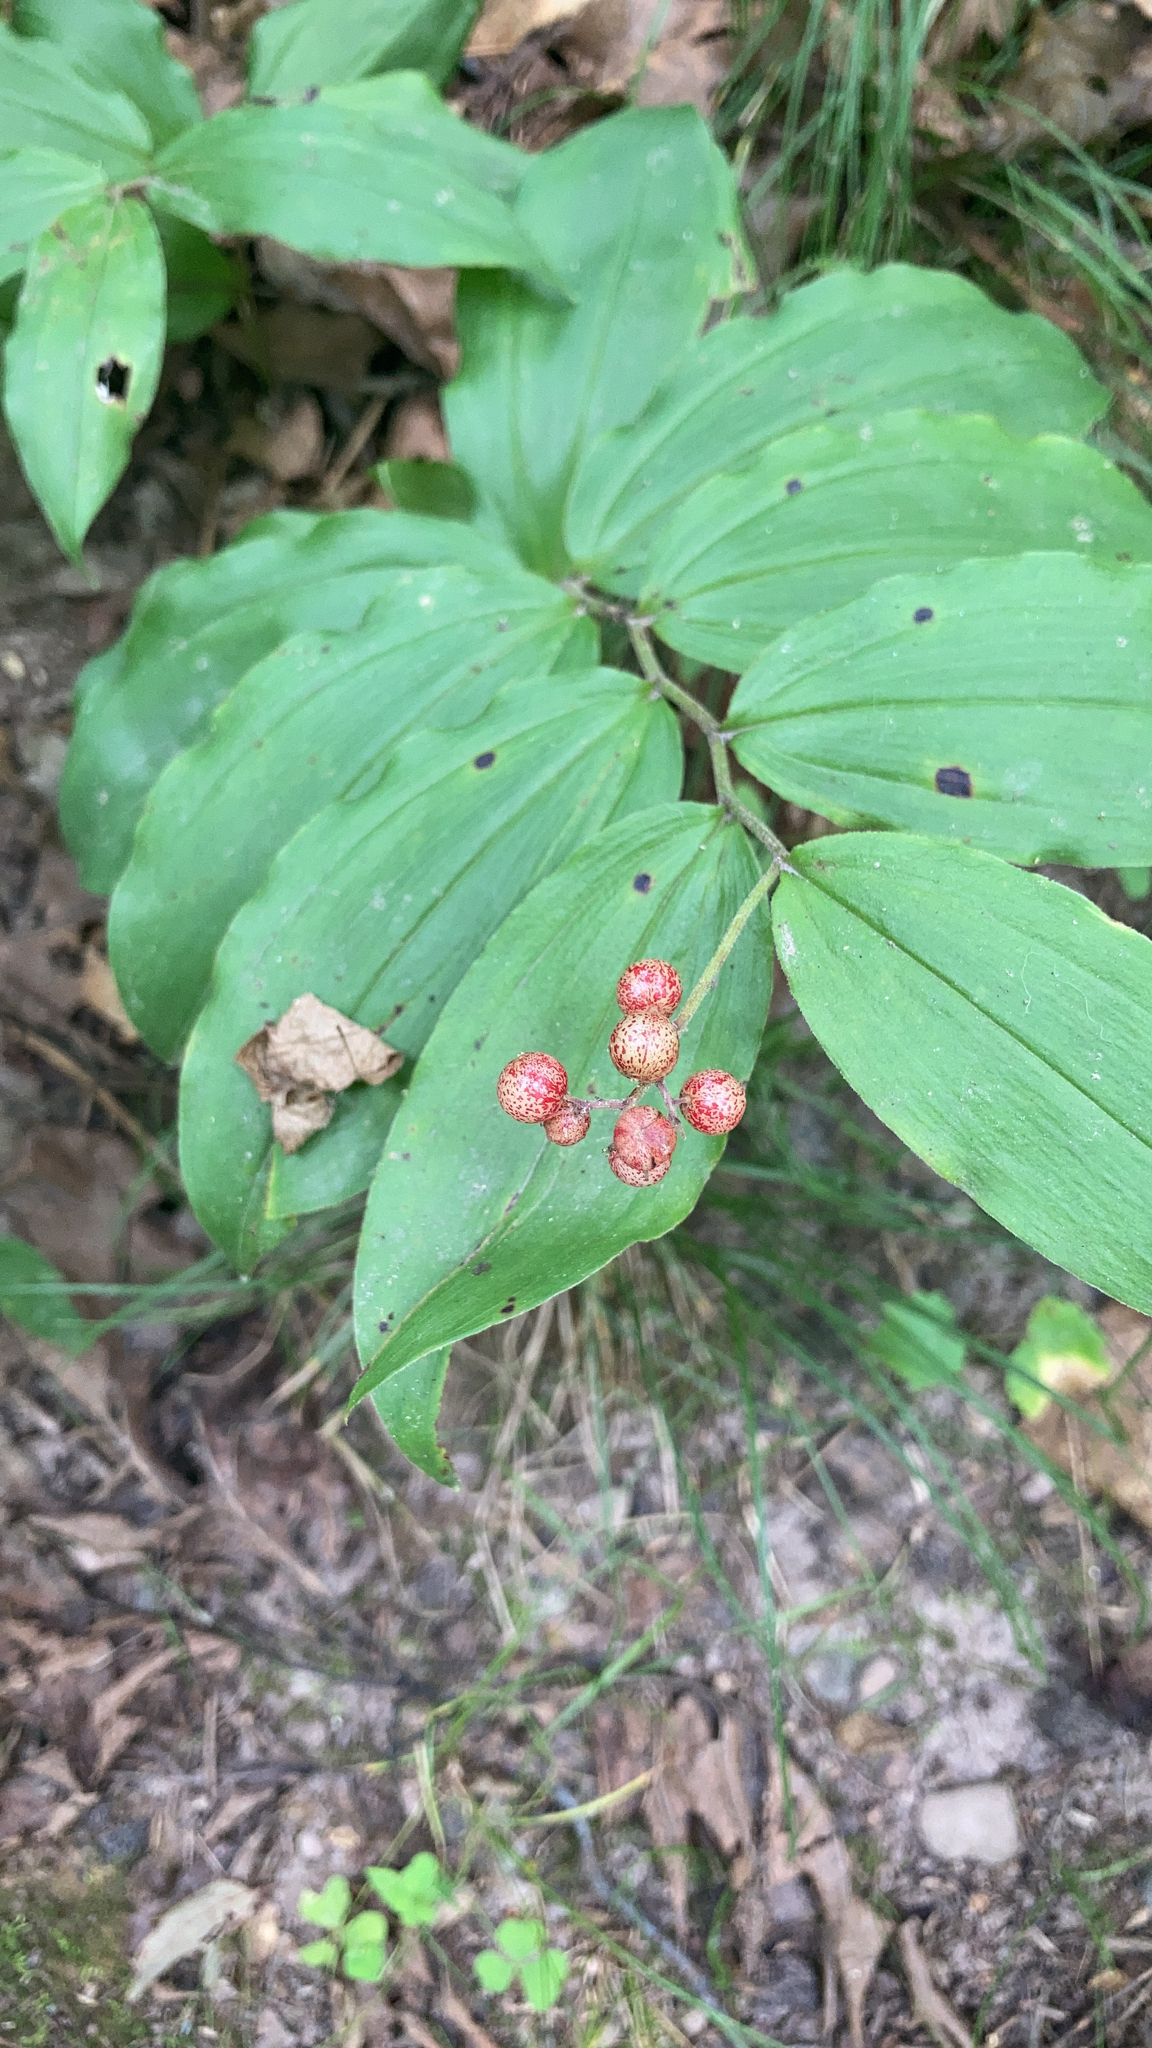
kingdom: Plantae
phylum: Tracheophyta
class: Liliopsida
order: Asparagales
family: Asparagaceae
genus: Maianthemum
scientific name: Maianthemum racemosum
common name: False spikenard
